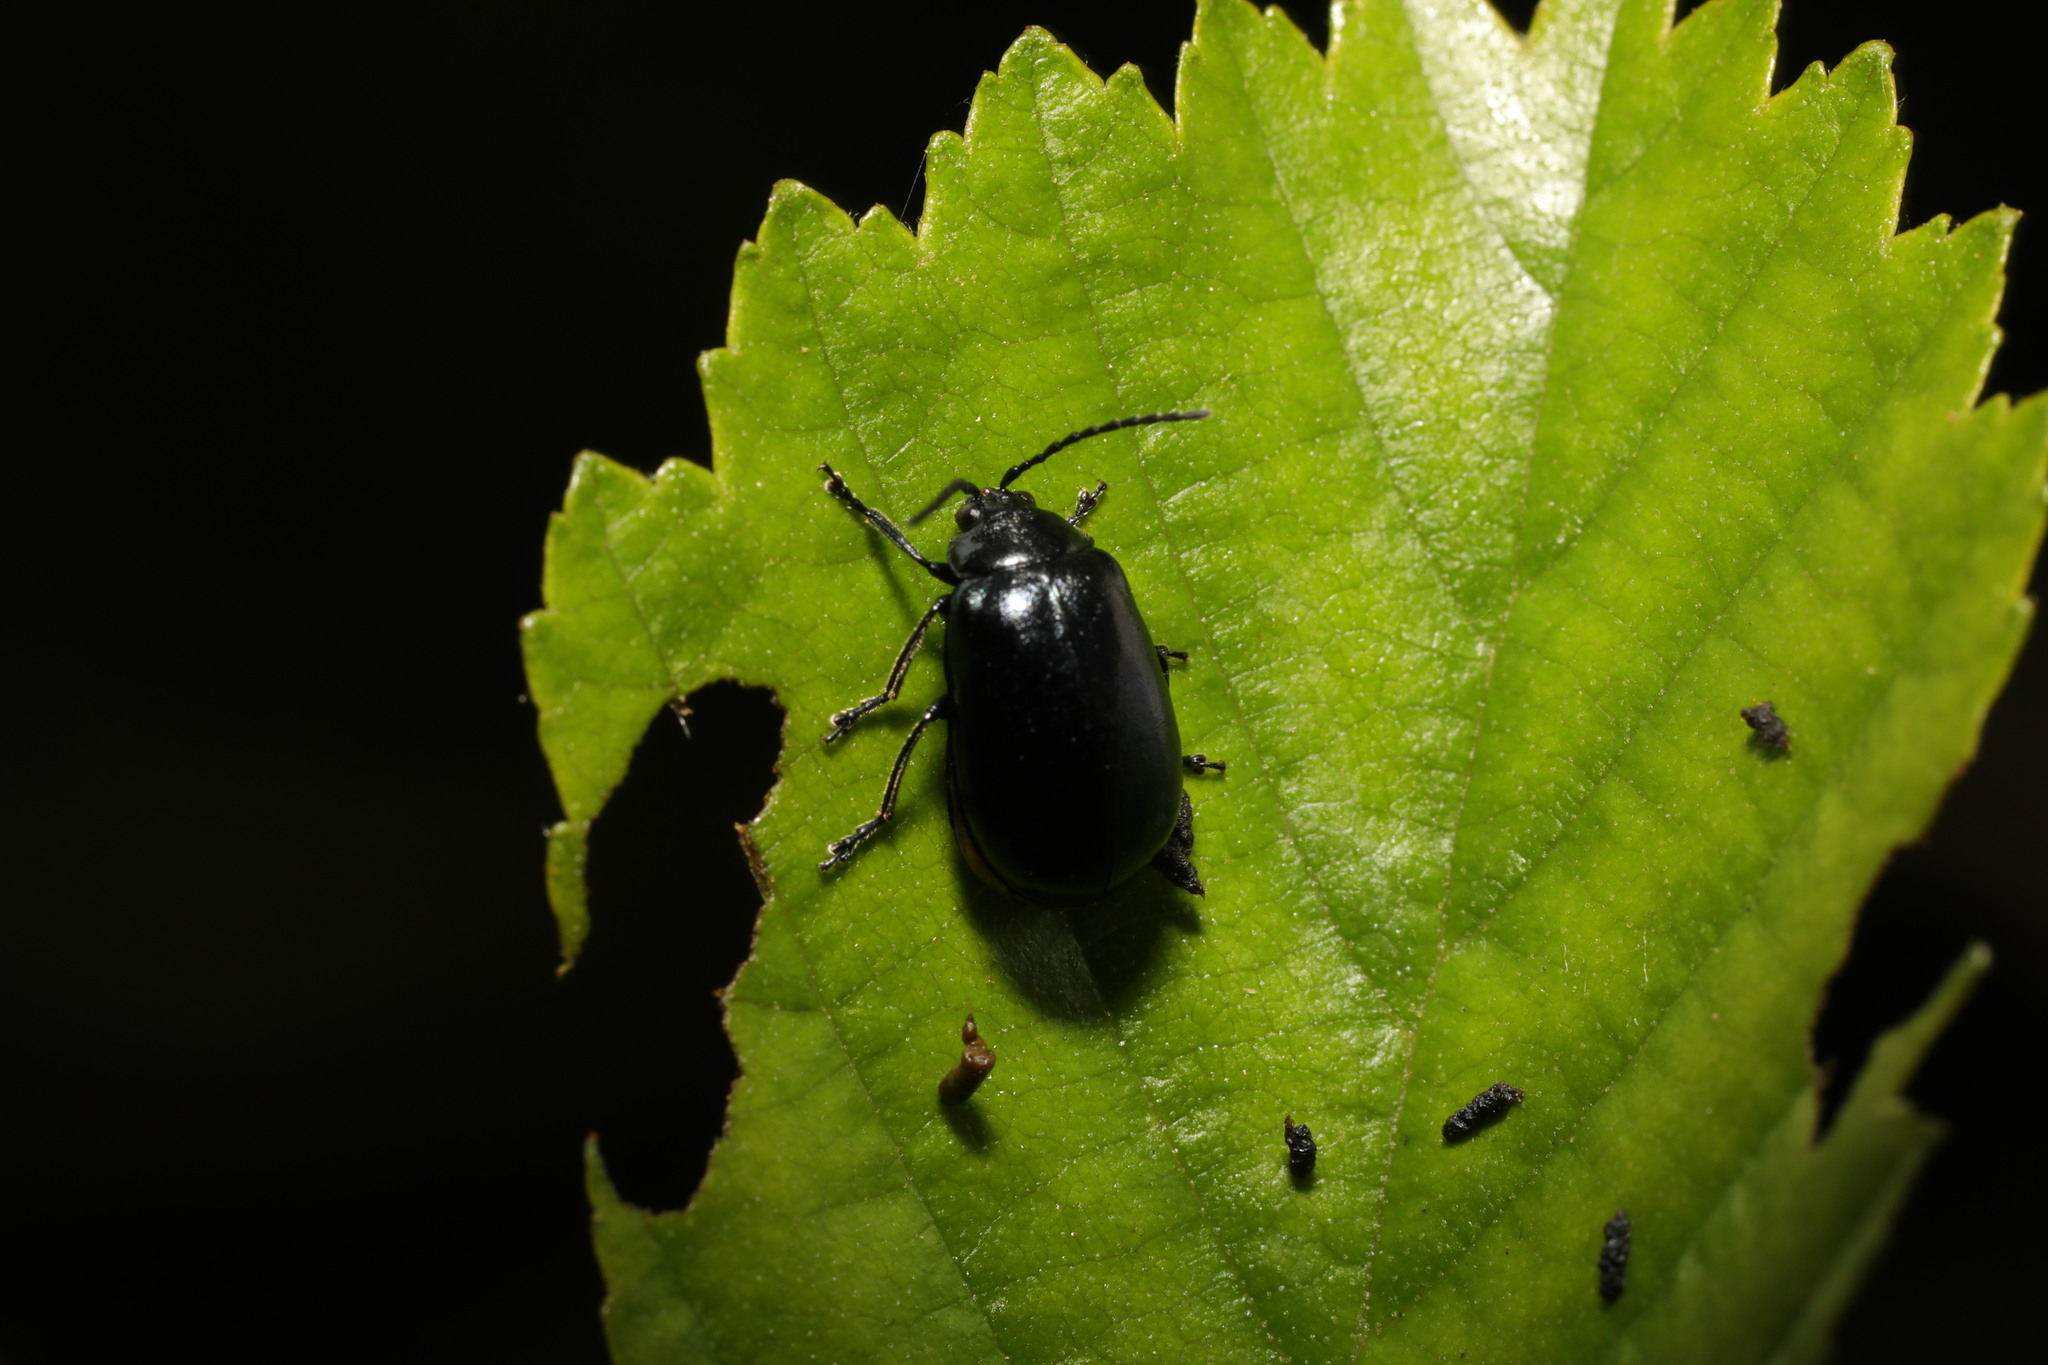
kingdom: Animalia
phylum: Arthropoda
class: Insecta
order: Coleoptera
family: Chrysomelidae
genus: Agelastica
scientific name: Agelastica alni
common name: Alder leaf beetle
